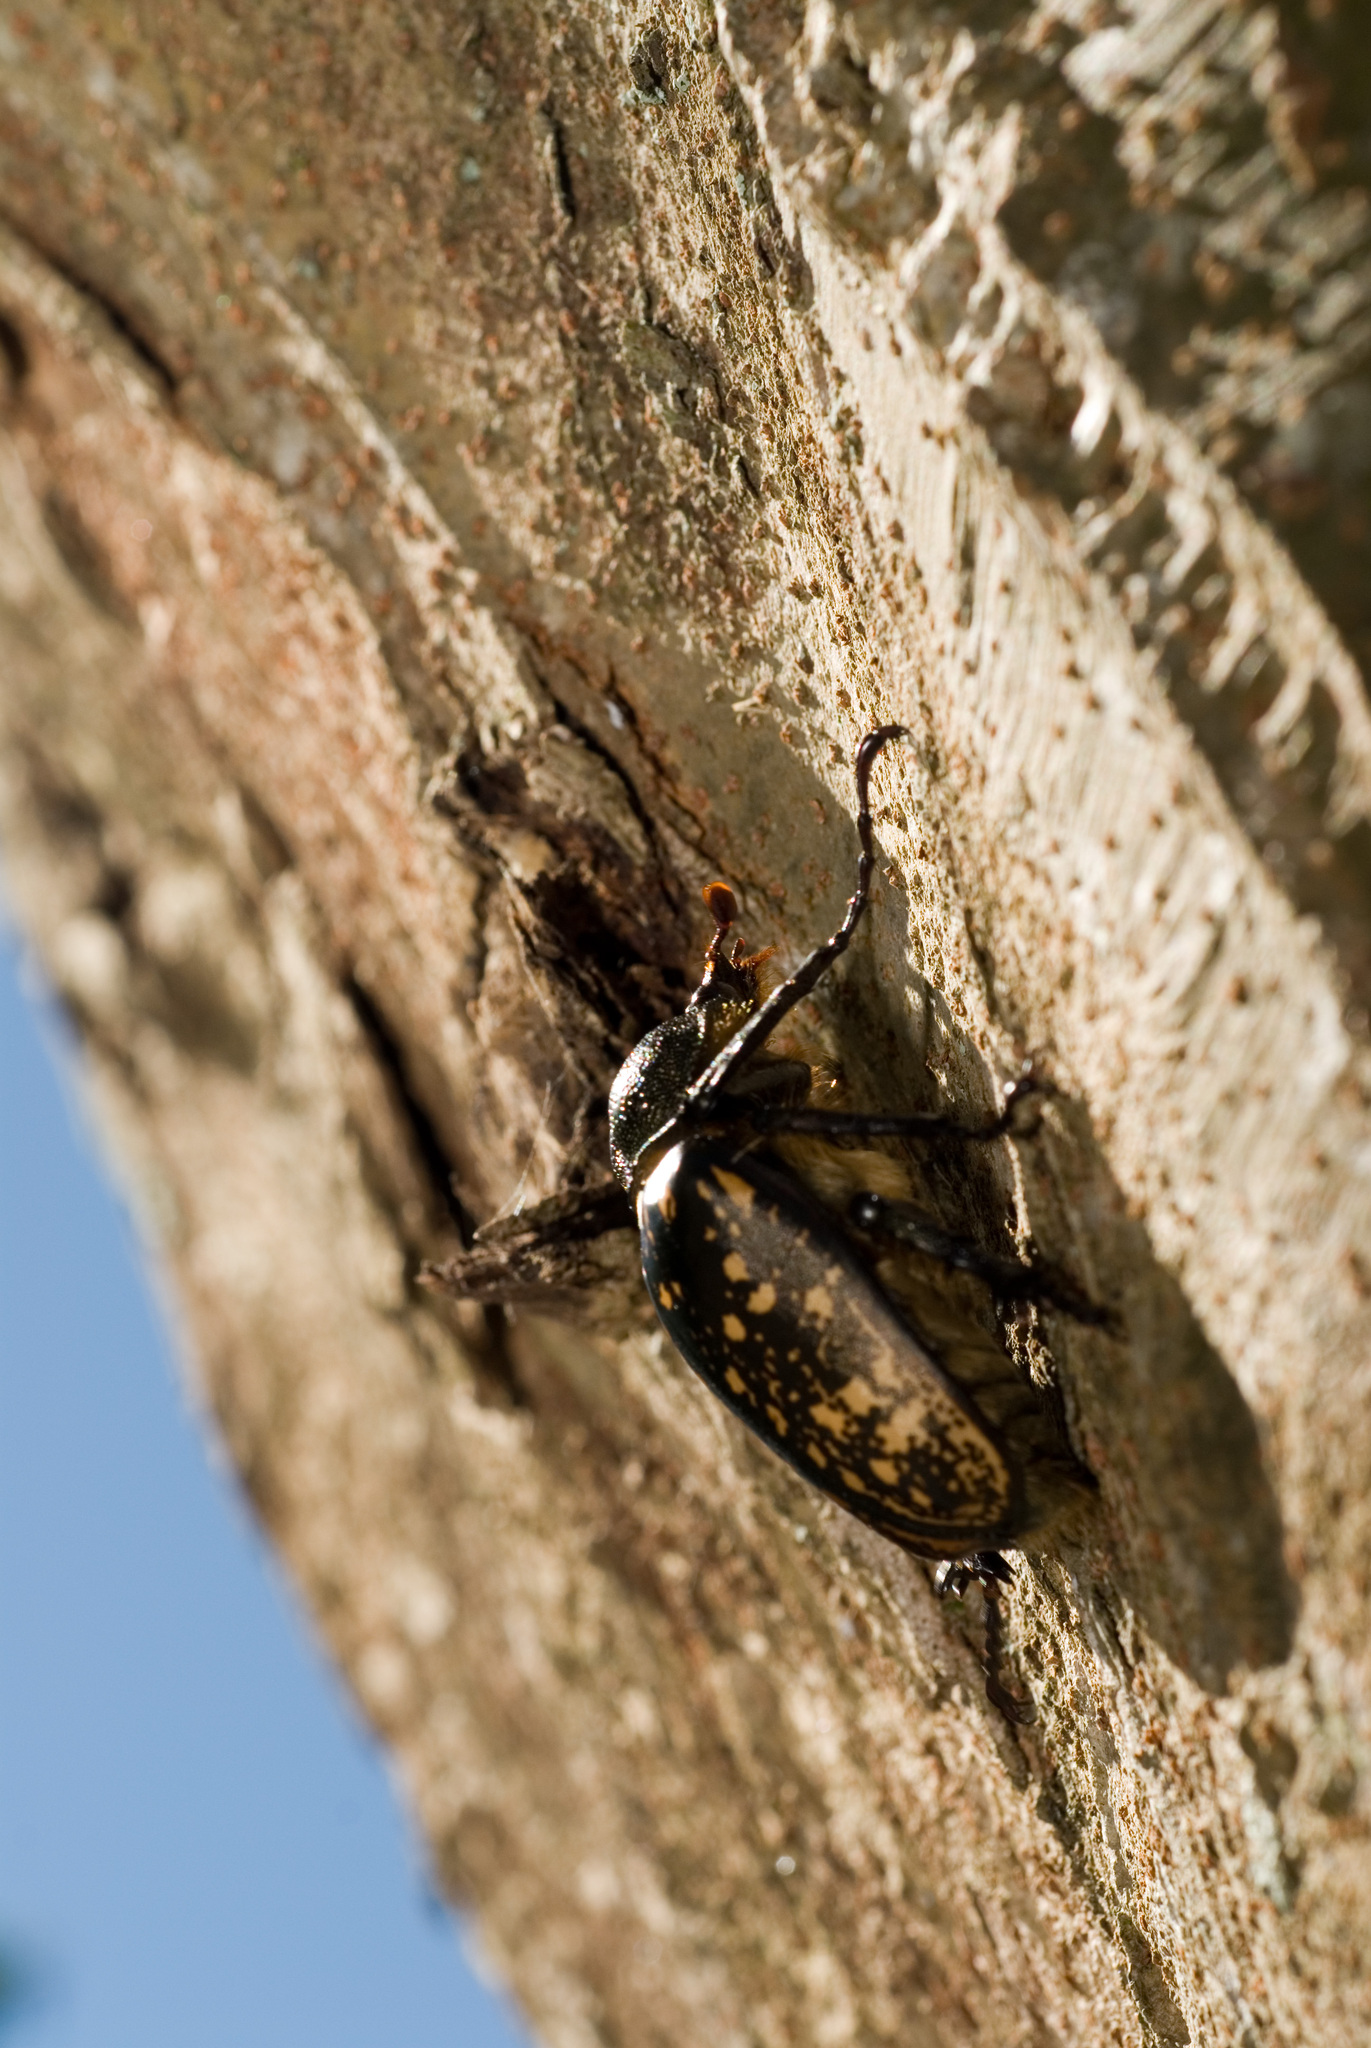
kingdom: Animalia
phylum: Arthropoda
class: Insecta
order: Coleoptera
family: Scarabaeidae
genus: Cheirotonus
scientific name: Cheirotonus formosanus
